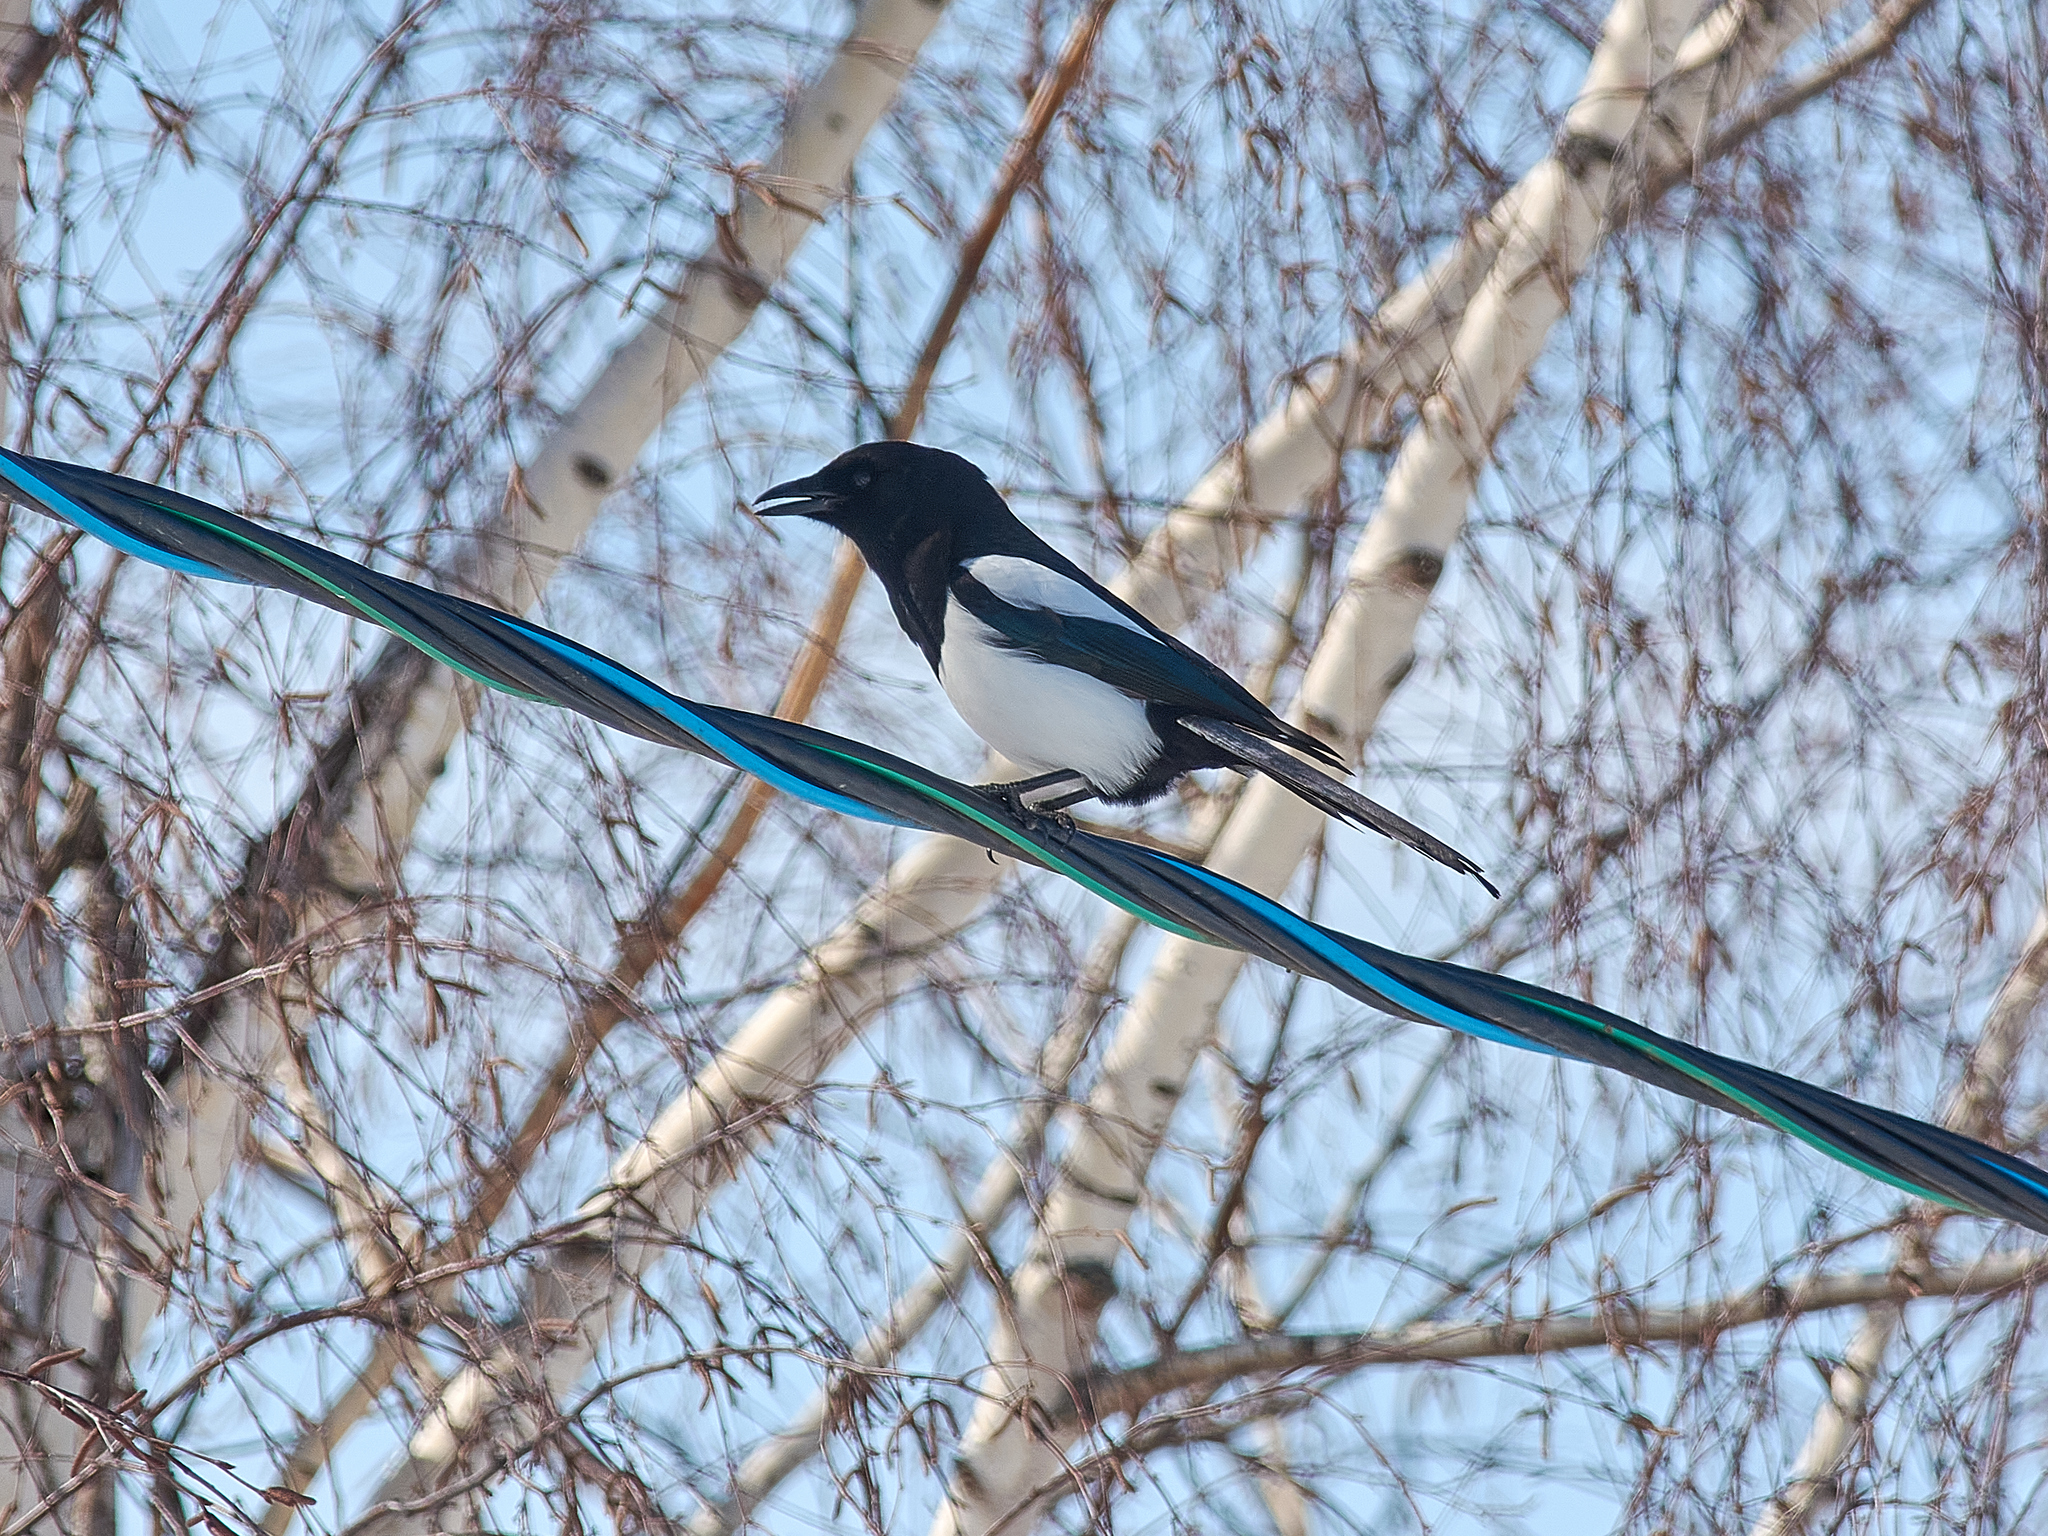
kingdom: Animalia
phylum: Chordata
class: Aves
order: Passeriformes
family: Corvidae
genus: Pica
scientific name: Pica pica
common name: Eurasian magpie
